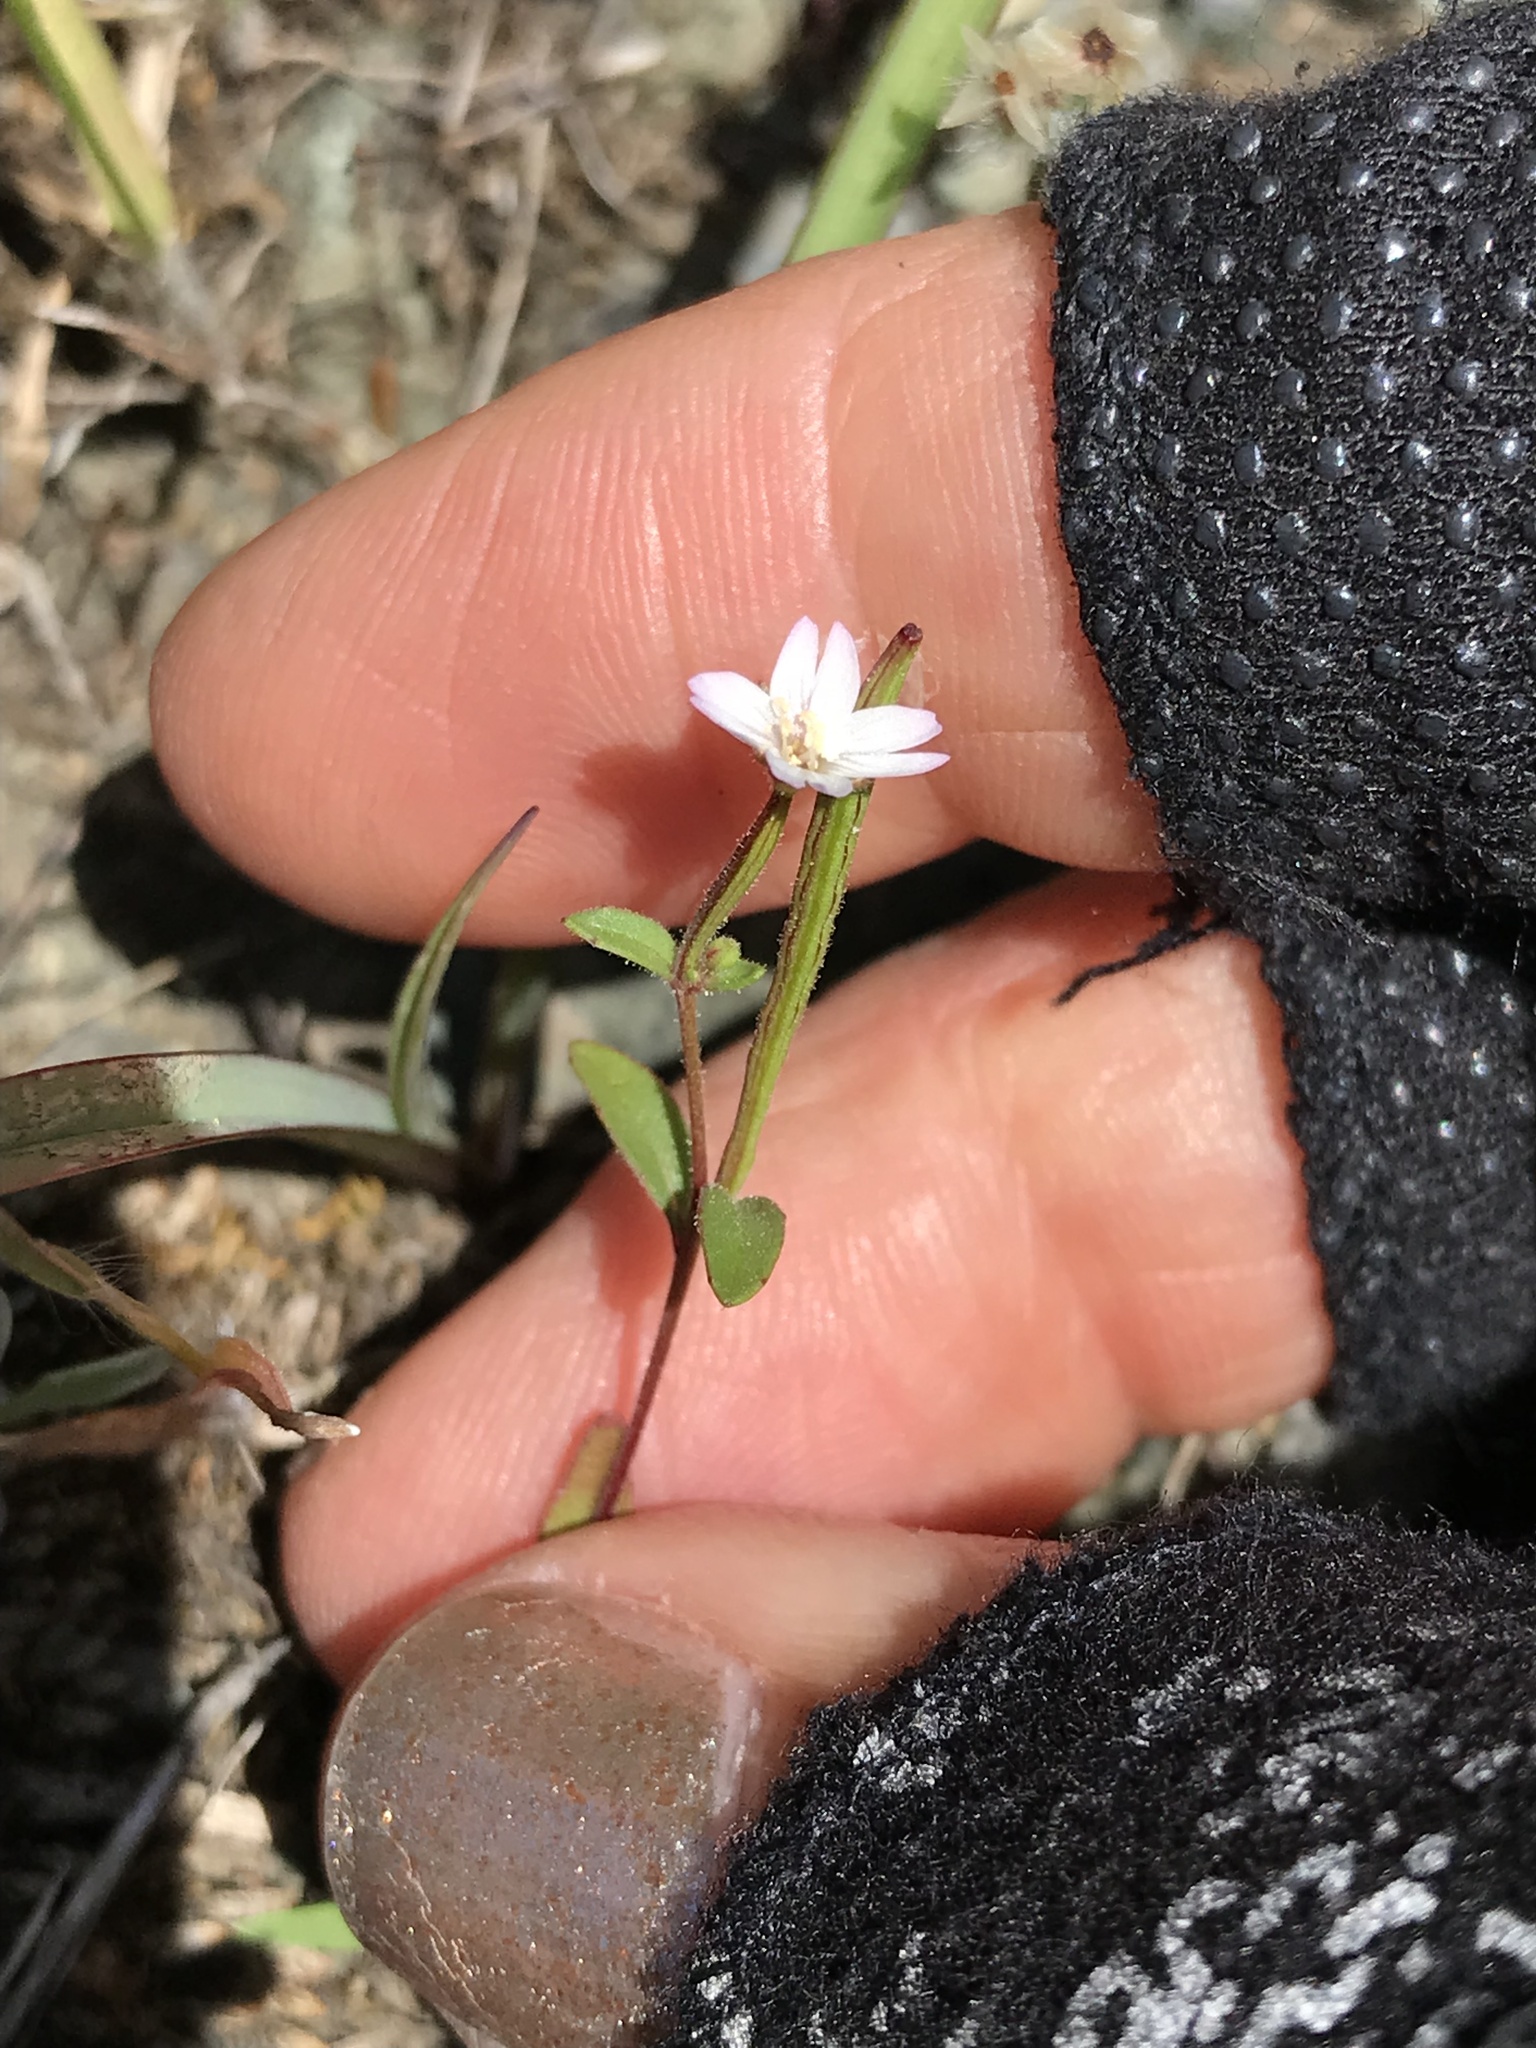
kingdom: Plantae
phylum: Tracheophyta
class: Magnoliopsida
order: Myrtales
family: Onagraceae
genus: Epilobium
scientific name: Epilobium minutum
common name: Chaparral willowherb
